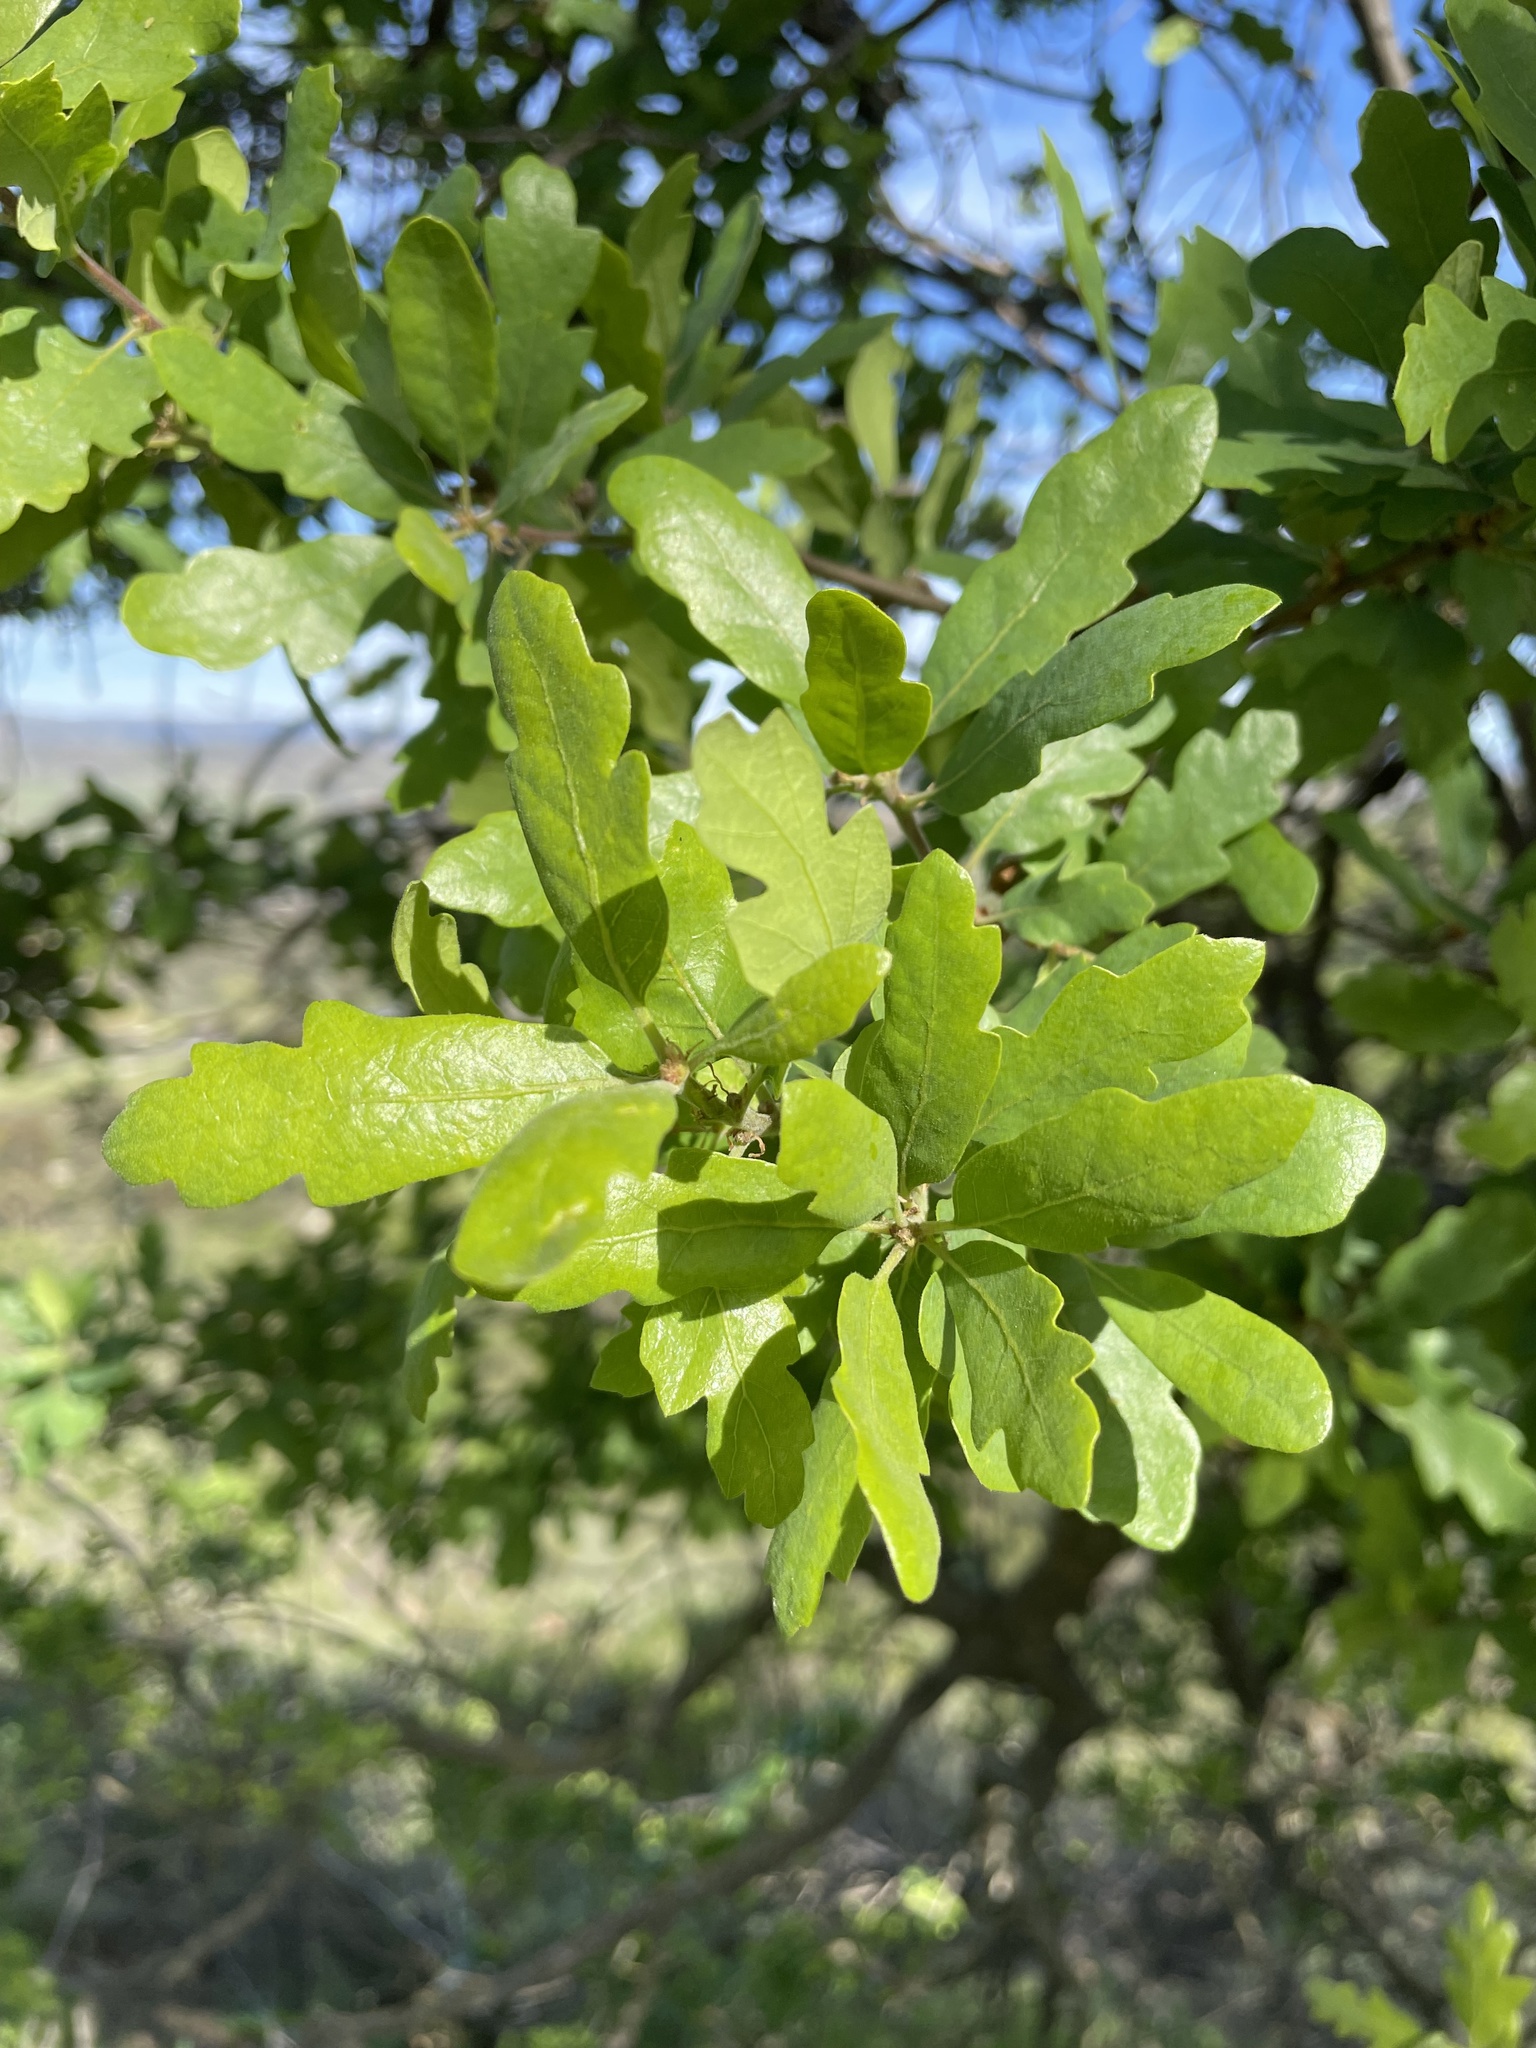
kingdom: Plantae
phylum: Tracheophyta
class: Magnoliopsida
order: Fagales
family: Fagaceae
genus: Quercus
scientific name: Quercus douglasii
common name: Blue oak
